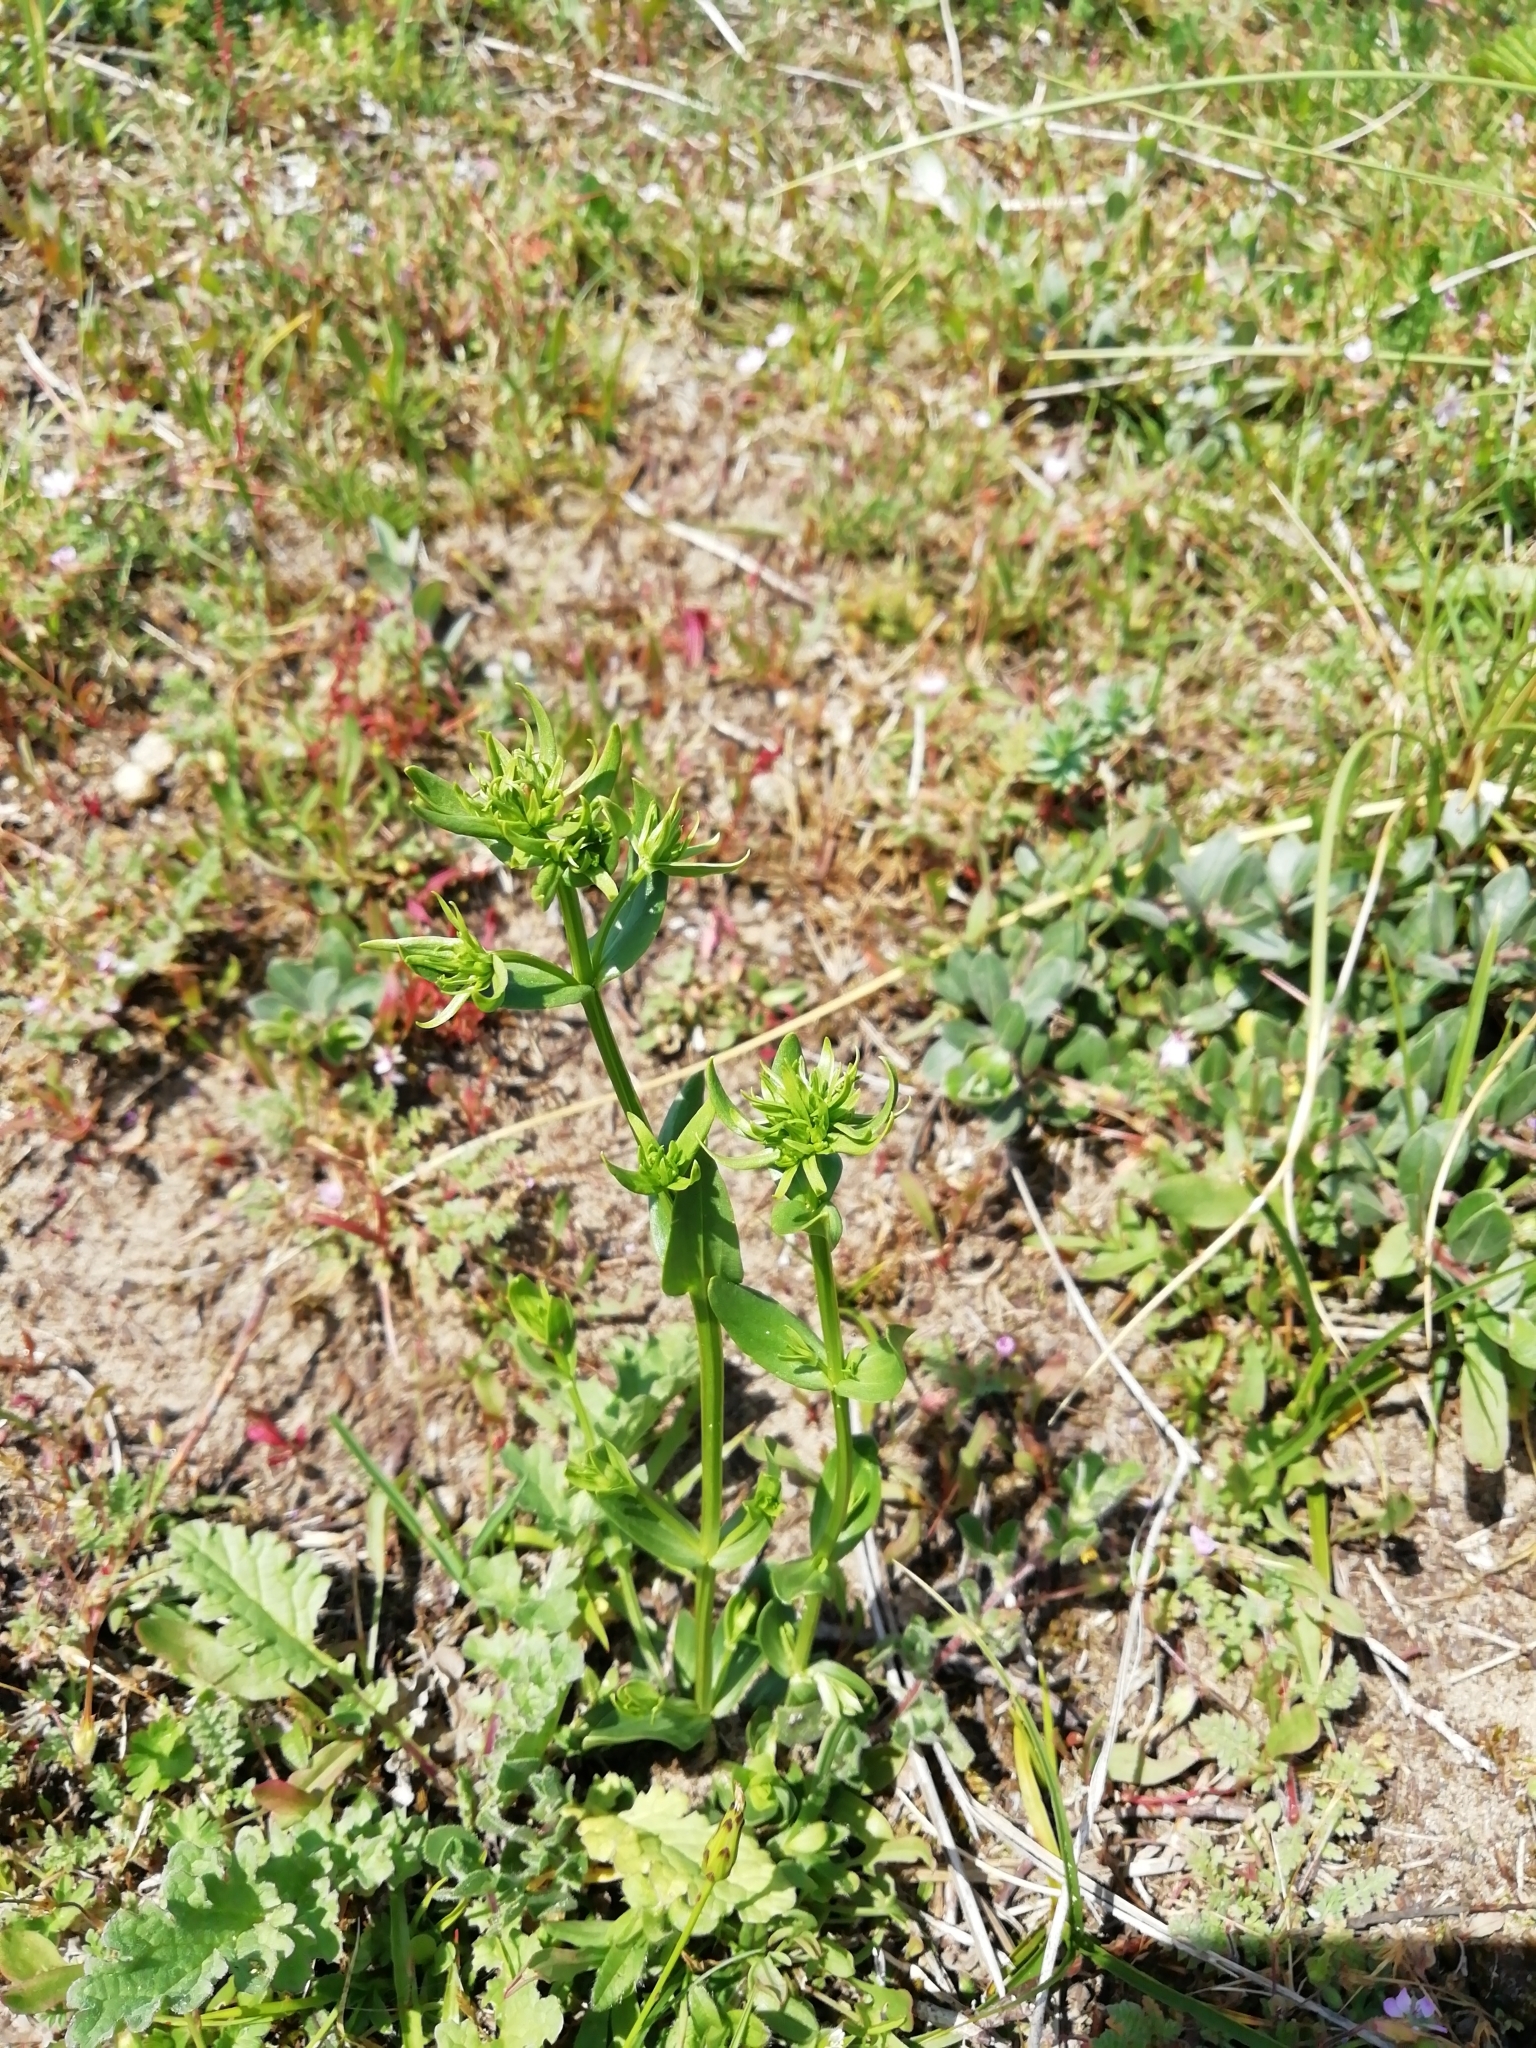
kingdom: Plantae
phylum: Tracheophyta
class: Magnoliopsida
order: Gentianales
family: Gentianaceae
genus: Centaurium
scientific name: Centaurium erythraea
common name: Common centaury
